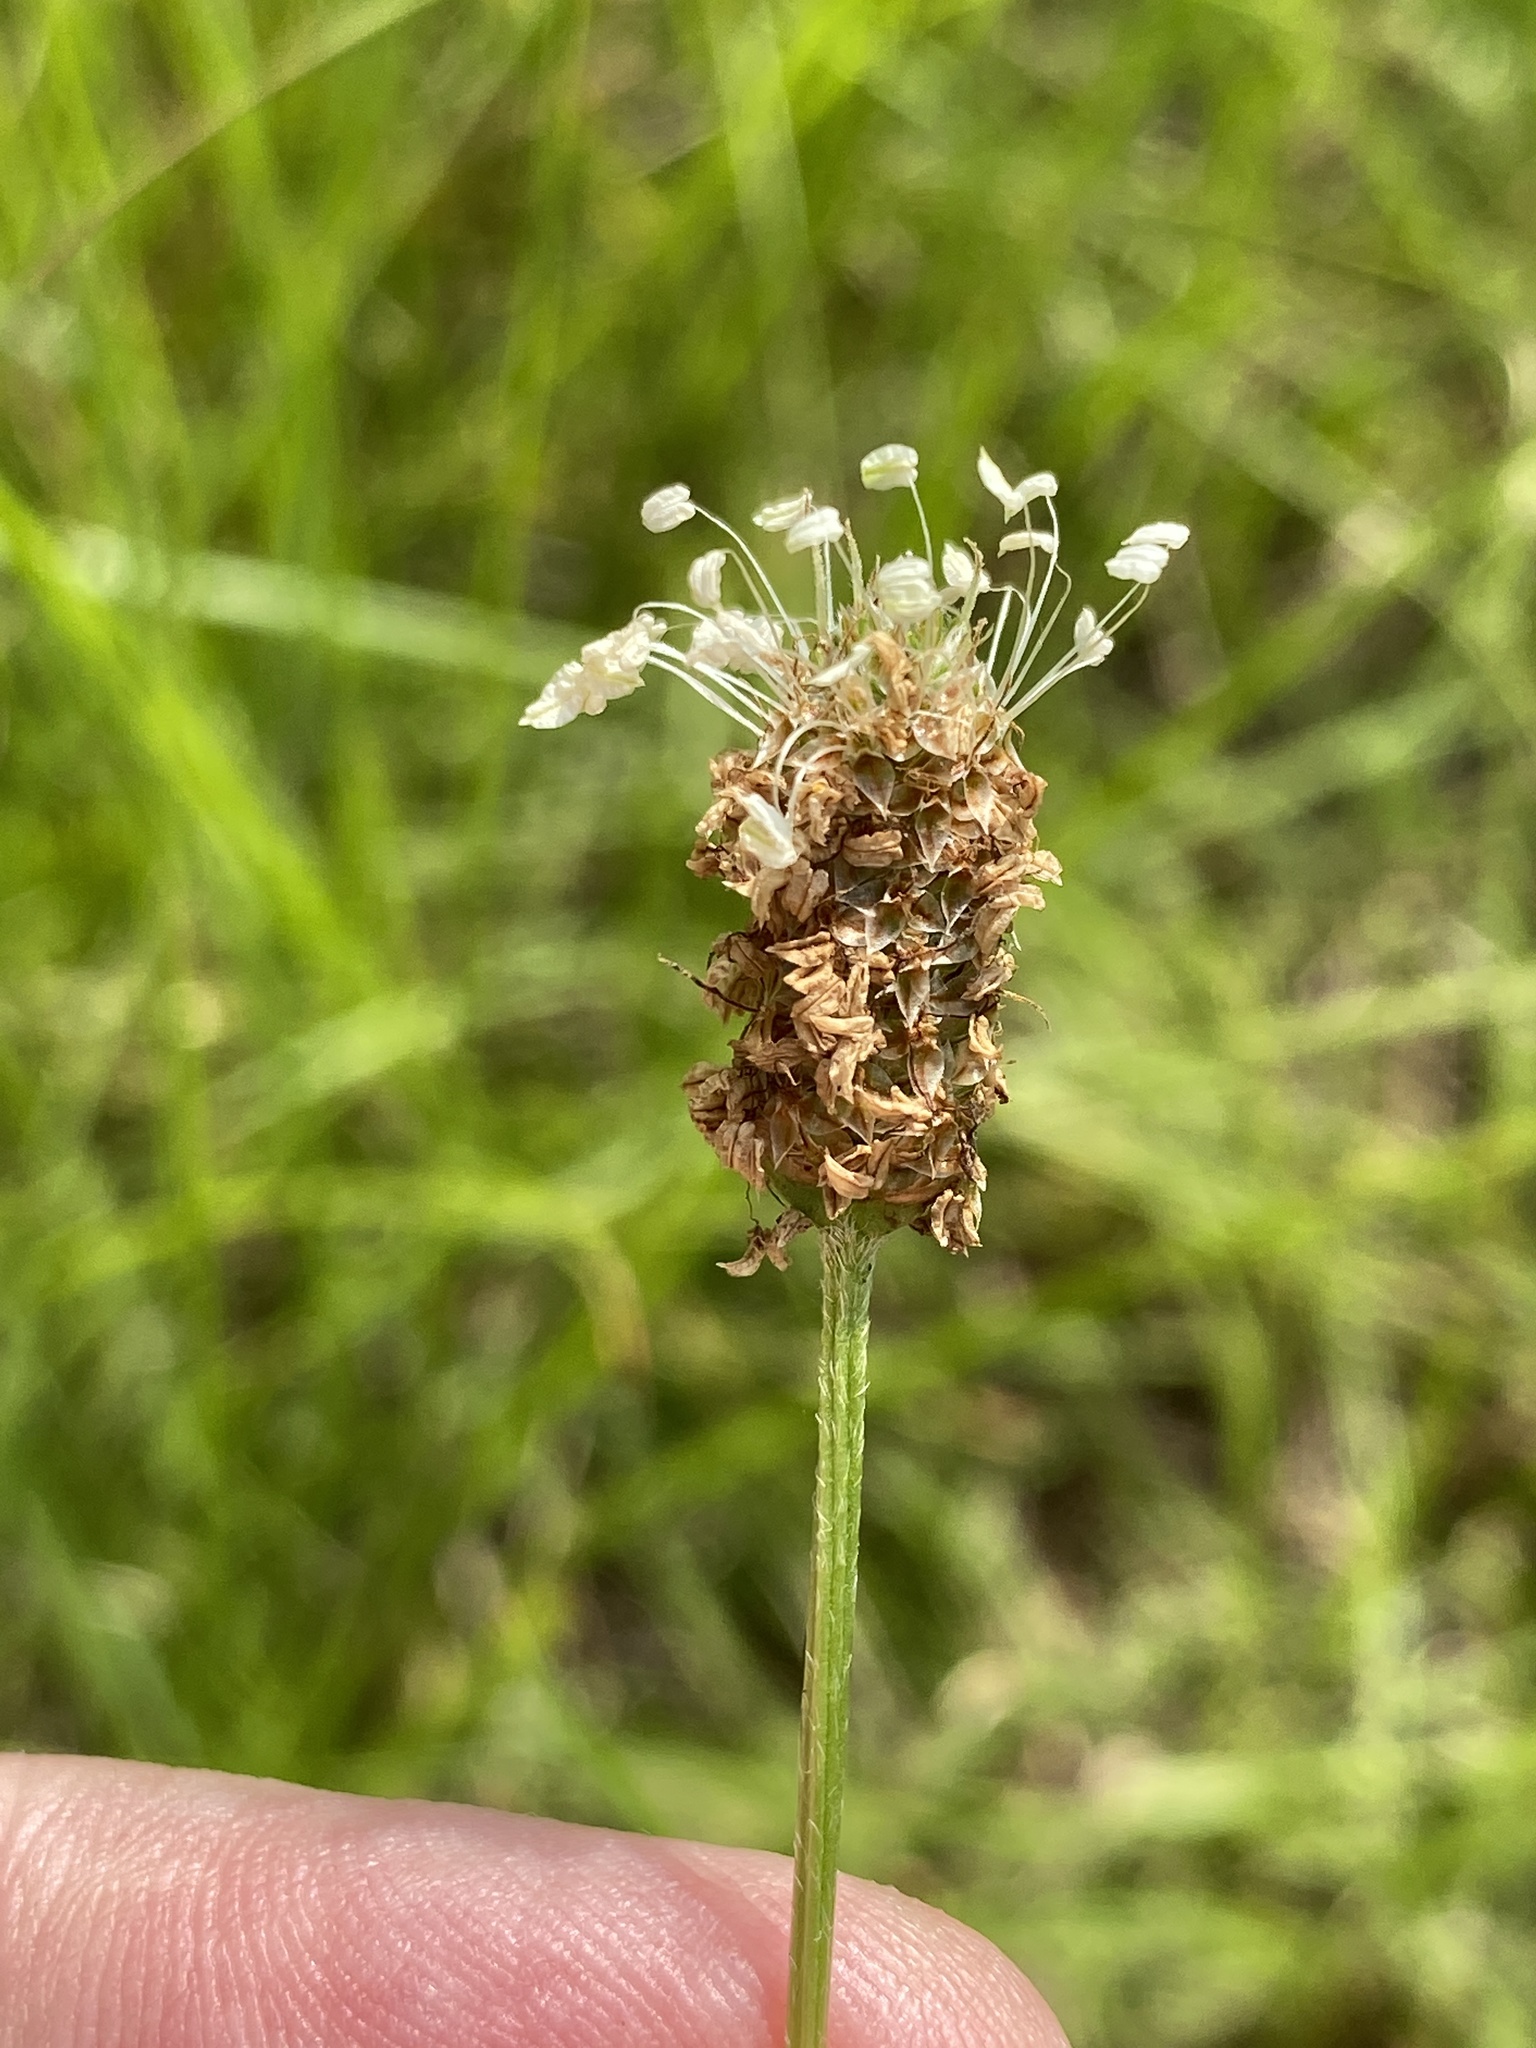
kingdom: Plantae
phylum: Tracheophyta
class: Magnoliopsida
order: Lamiales
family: Plantaginaceae
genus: Plantago
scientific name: Plantago lanceolata
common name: Ribwort plantain
